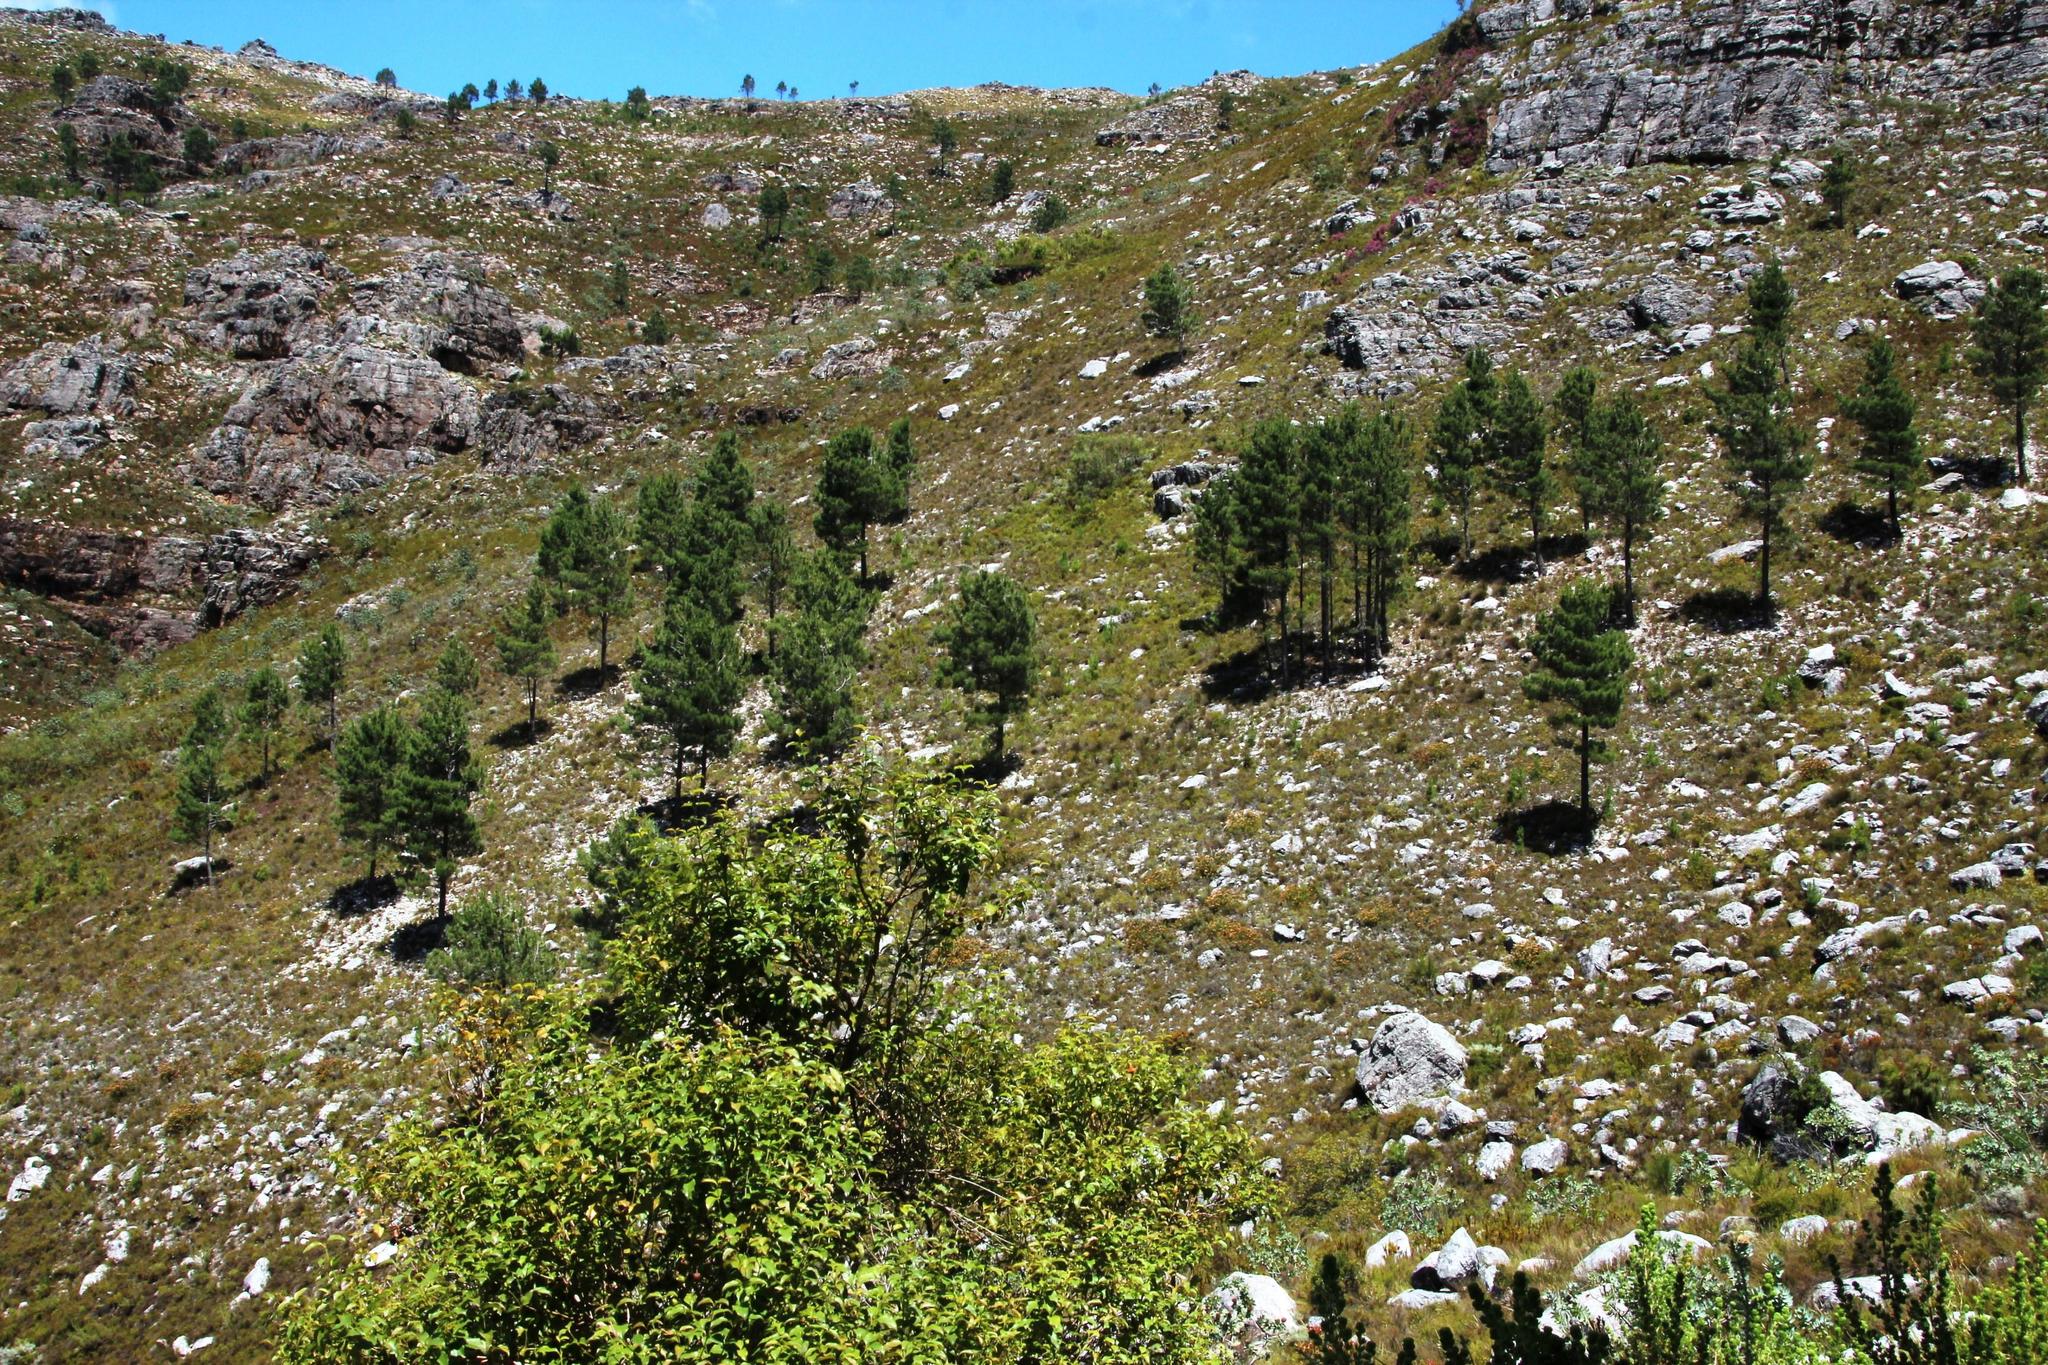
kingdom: Plantae
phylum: Tracheophyta
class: Pinopsida
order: Pinales
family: Pinaceae
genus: Pinus
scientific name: Pinus pinaster
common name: Maritime pine
